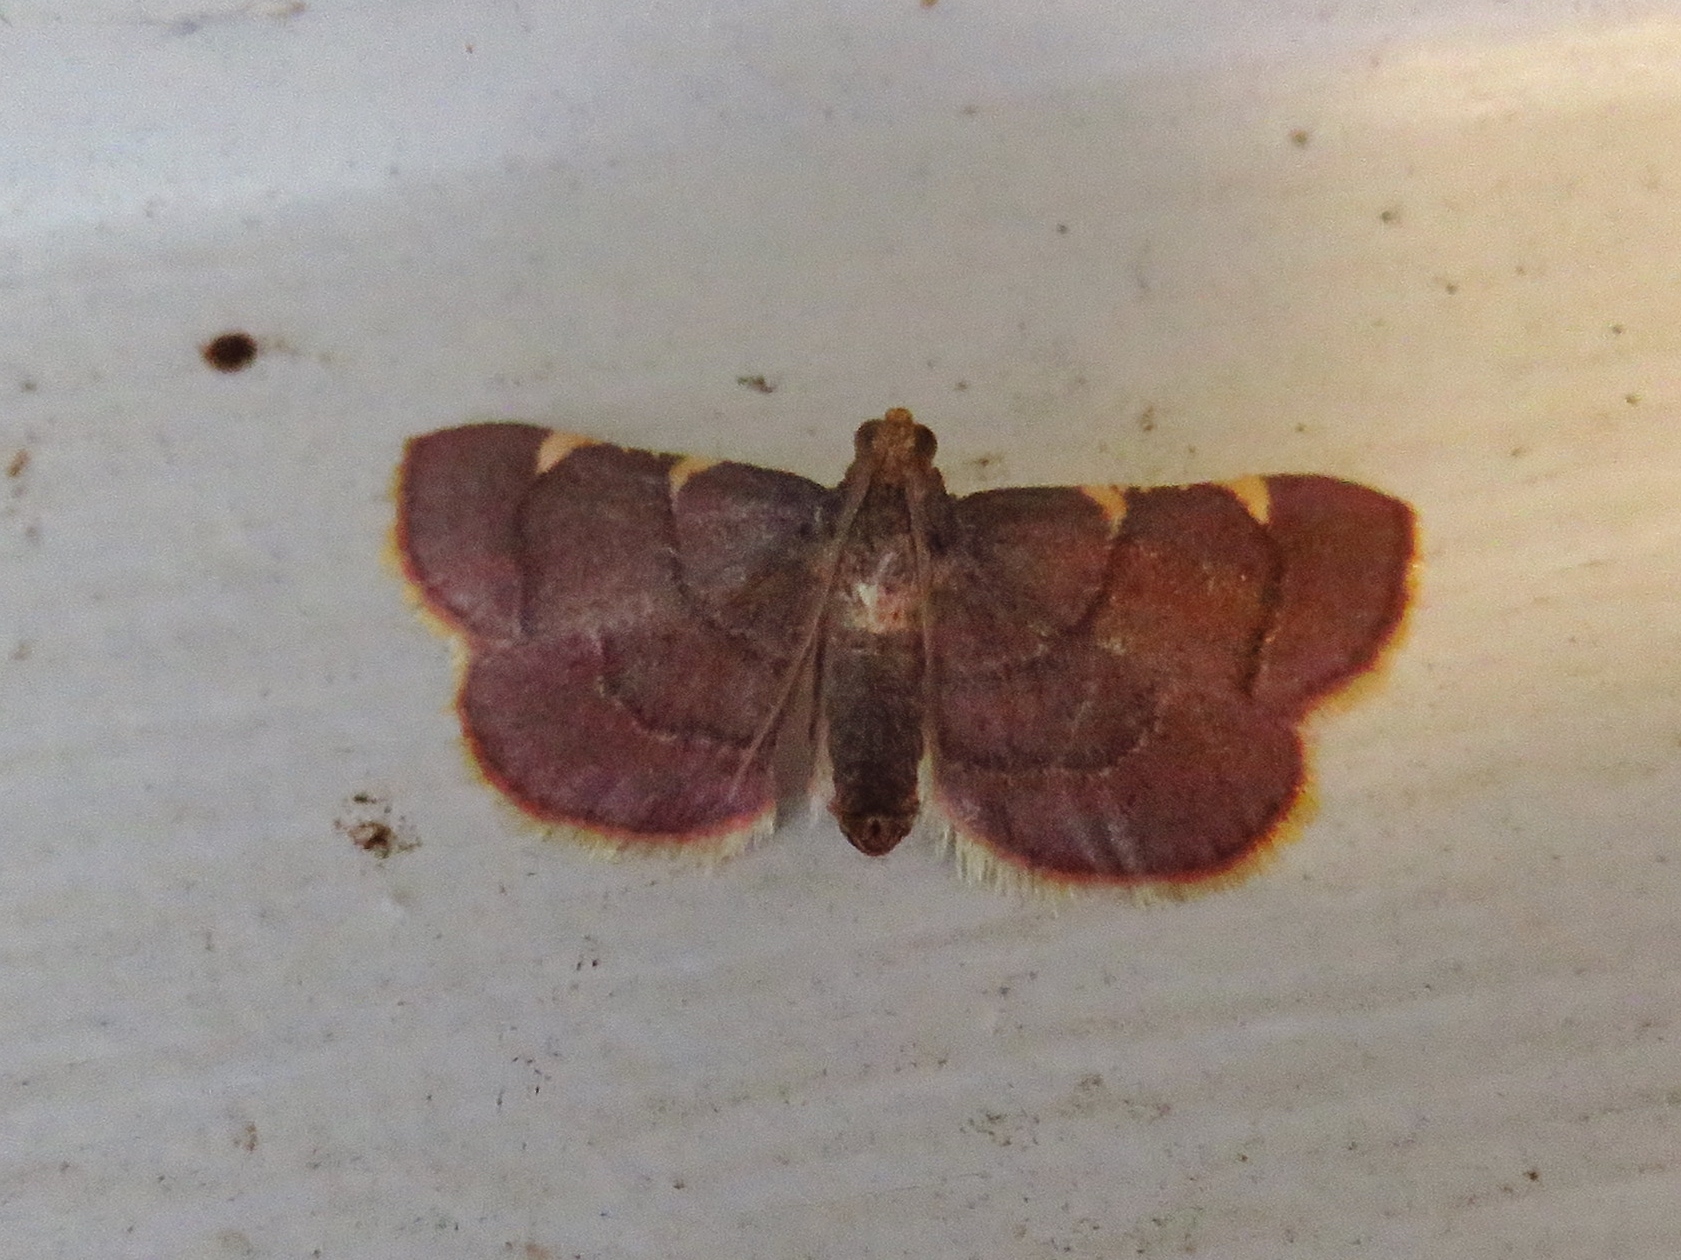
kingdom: Animalia
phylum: Arthropoda
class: Insecta
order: Lepidoptera
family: Pyralidae
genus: Hypsopygia
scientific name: Hypsopygia olinalis
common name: Yellow-fringed dolichomia moth
